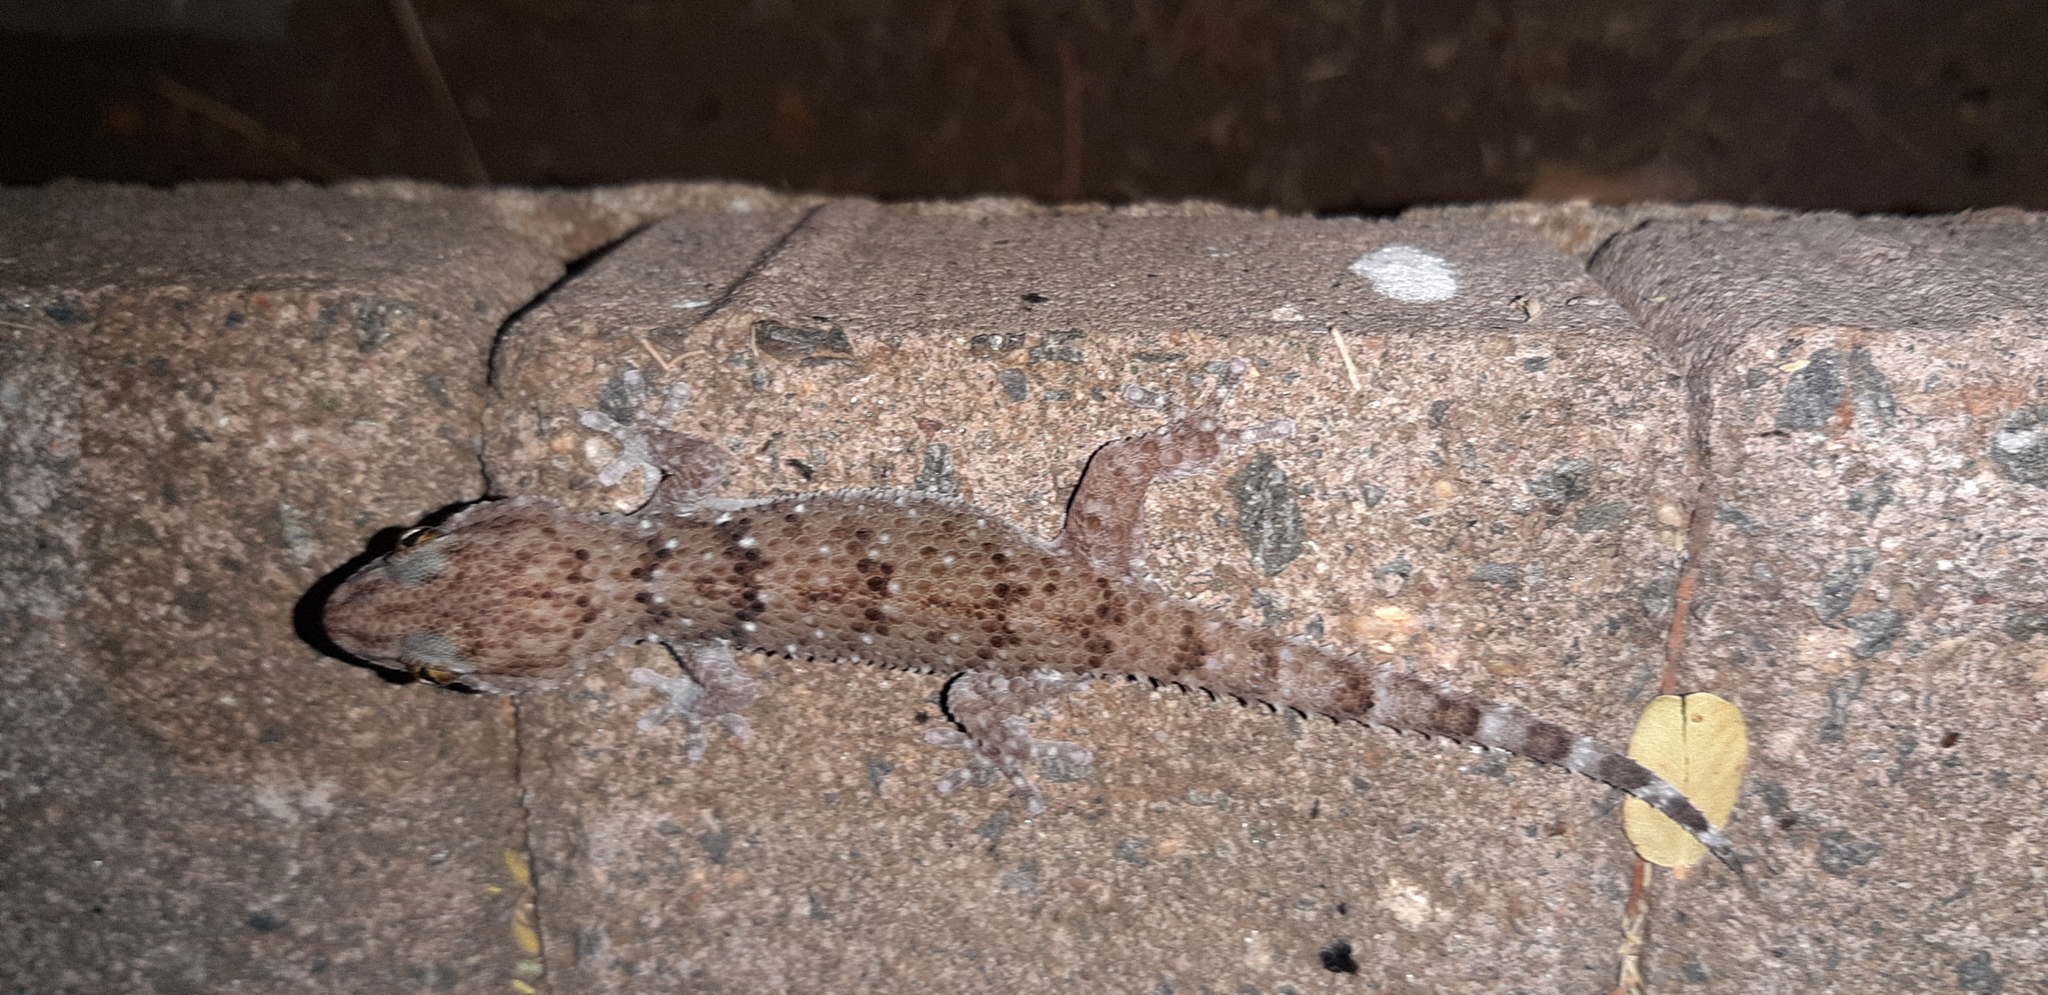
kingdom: Animalia
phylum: Chordata
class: Squamata
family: Gekkonidae
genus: Chondrodactylus
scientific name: Chondrodactylus turneri
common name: Turner’s gecko
